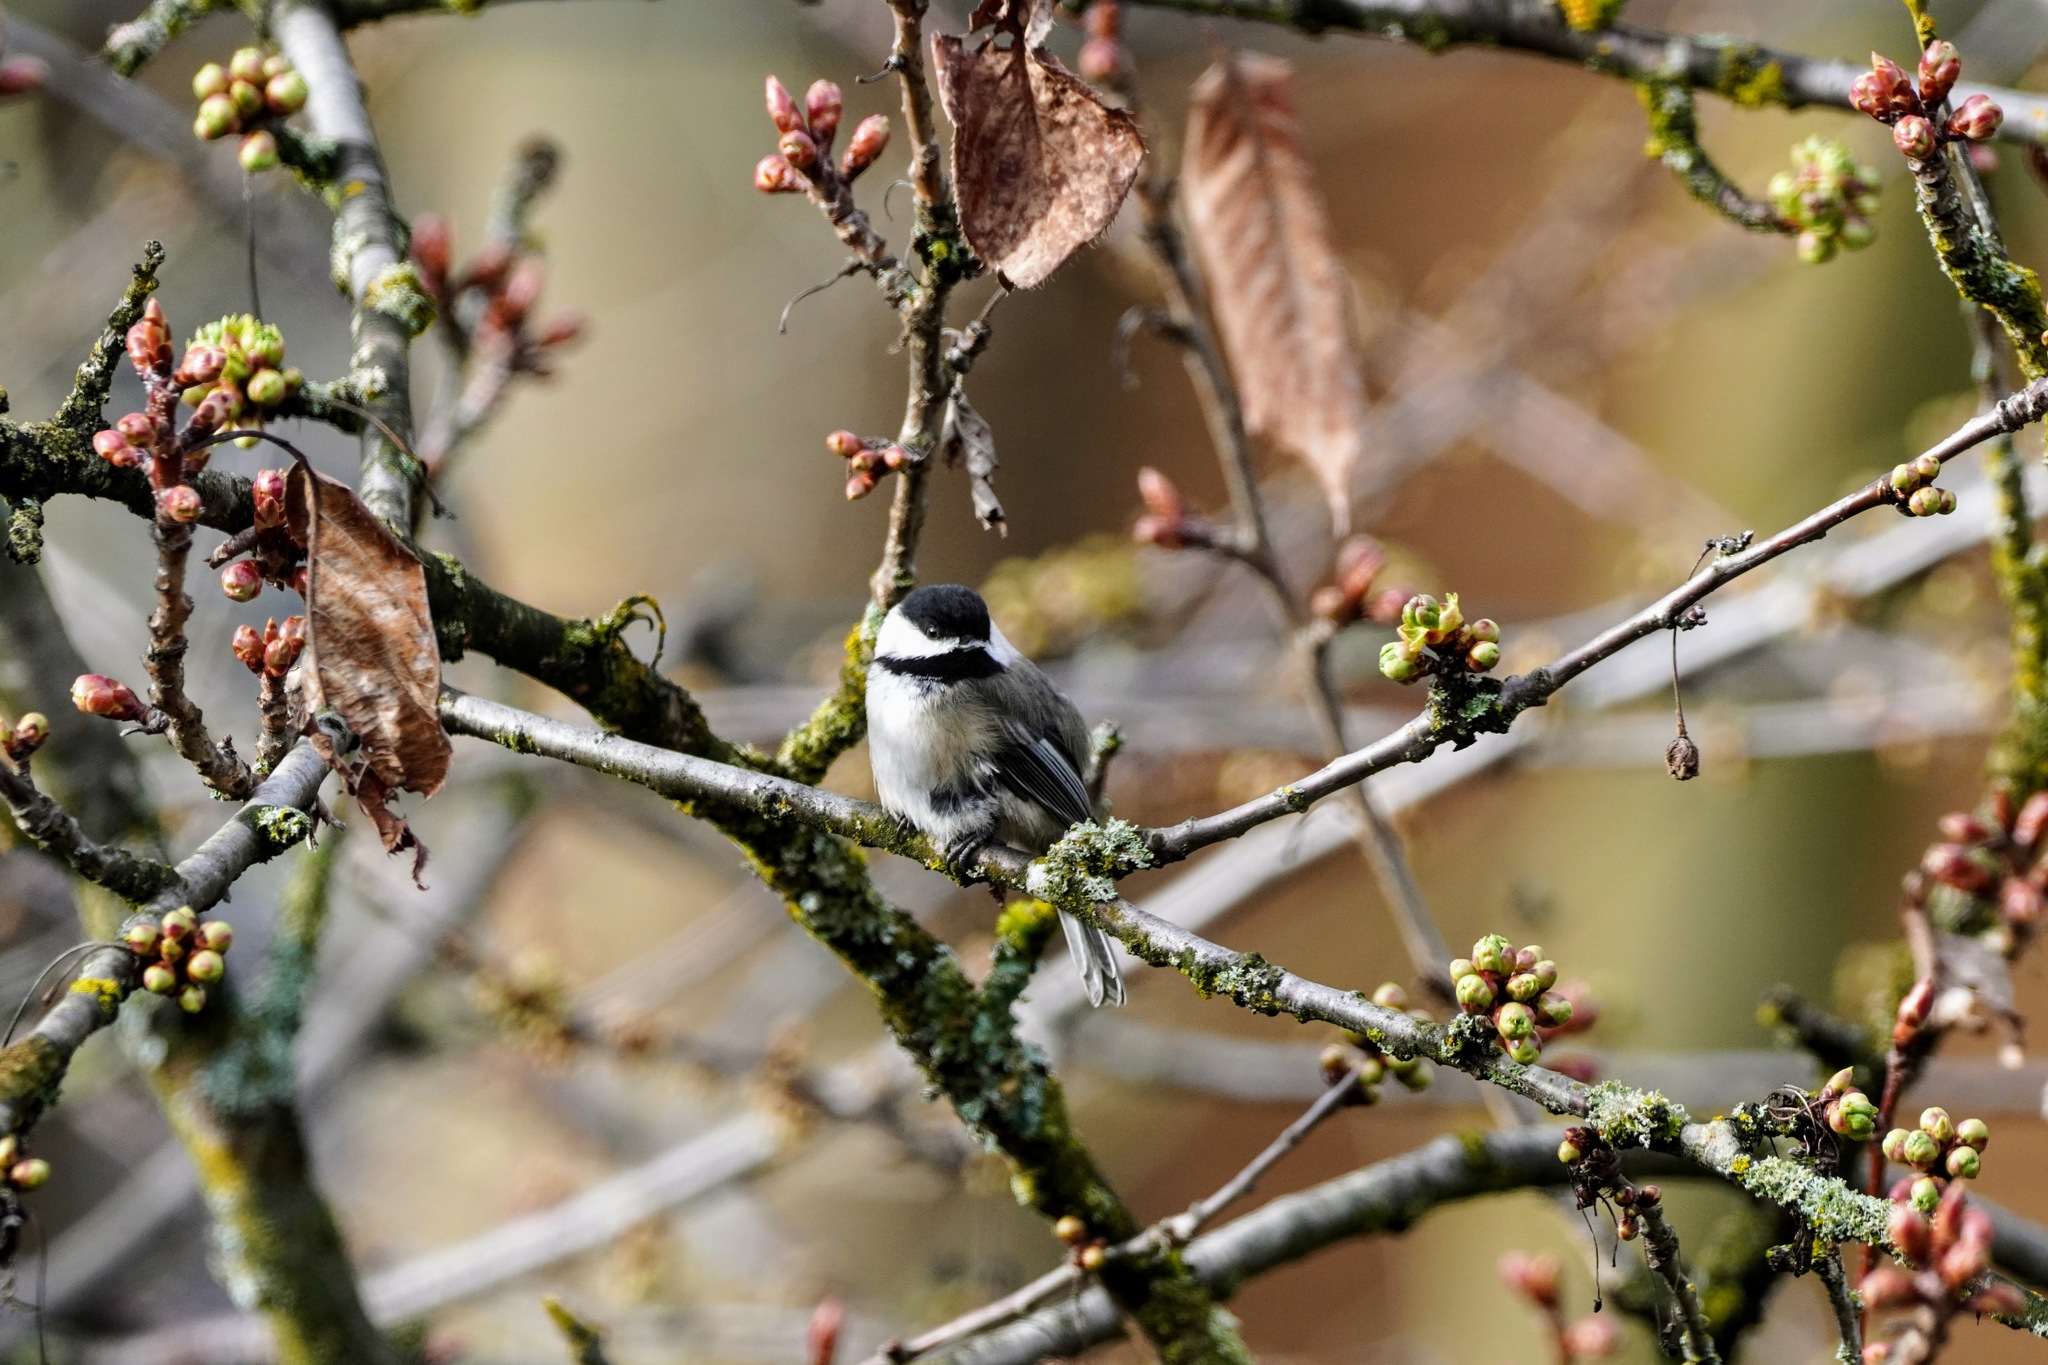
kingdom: Animalia
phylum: Chordata
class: Aves
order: Passeriformes
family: Paridae
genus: Poecile
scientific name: Poecile atricapillus
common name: Black-capped chickadee
